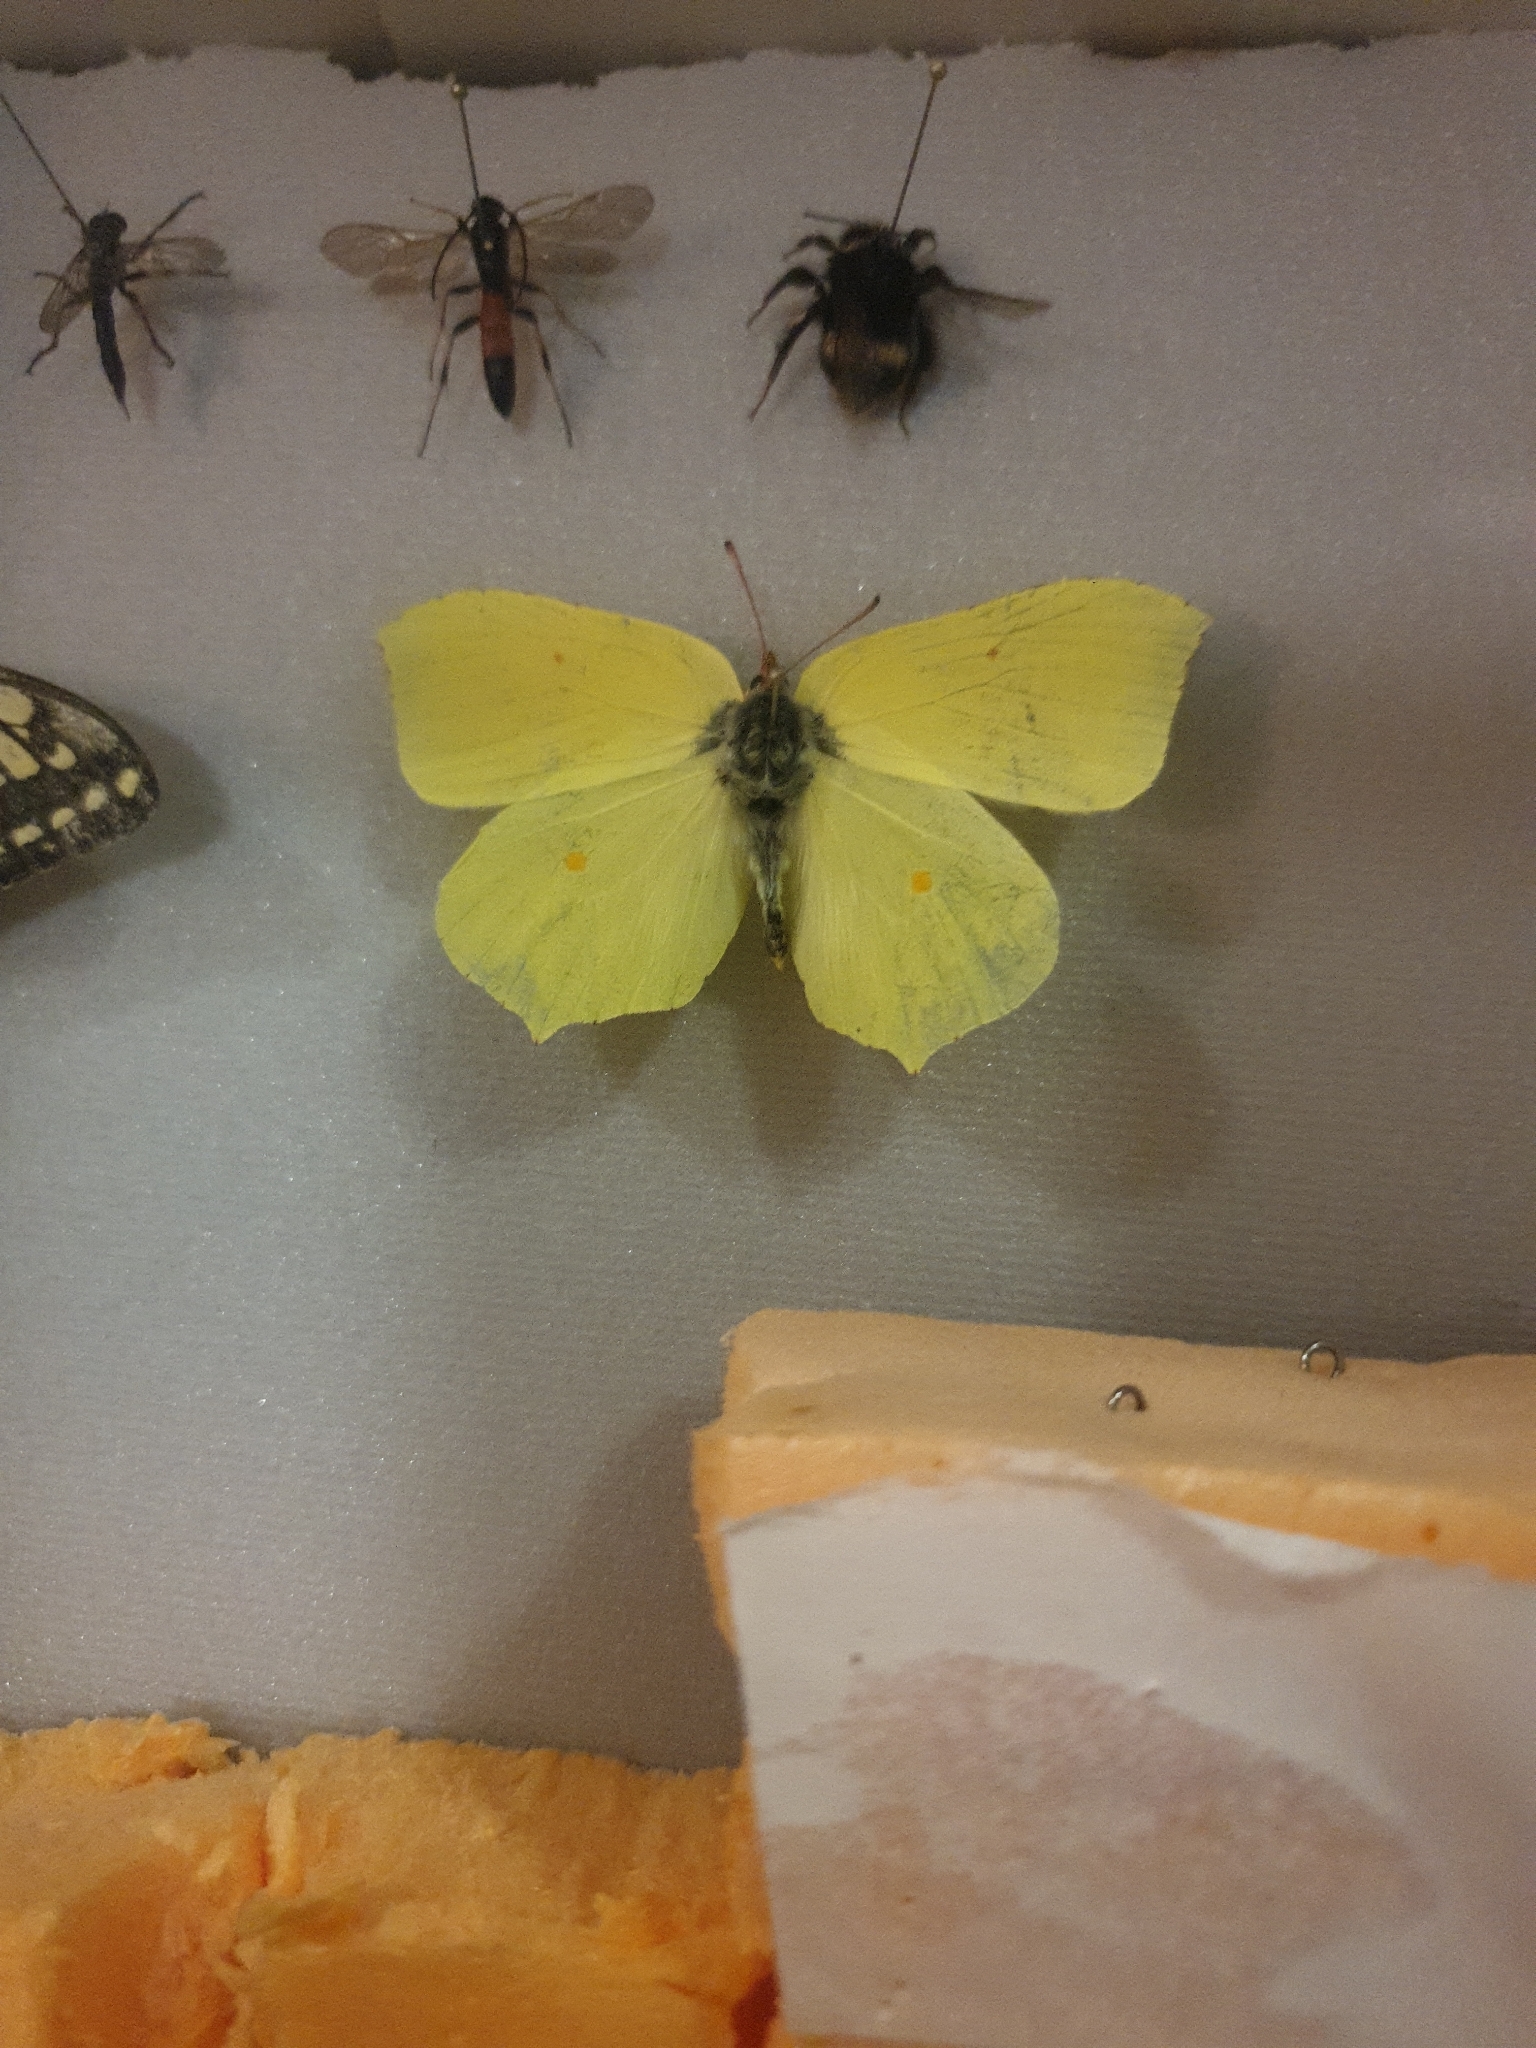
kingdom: Animalia
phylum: Arthropoda
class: Insecta
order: Lepidoptera
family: Pieridae
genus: Gonepteryx
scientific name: Gonepteryx rhamni
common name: Brimstone
